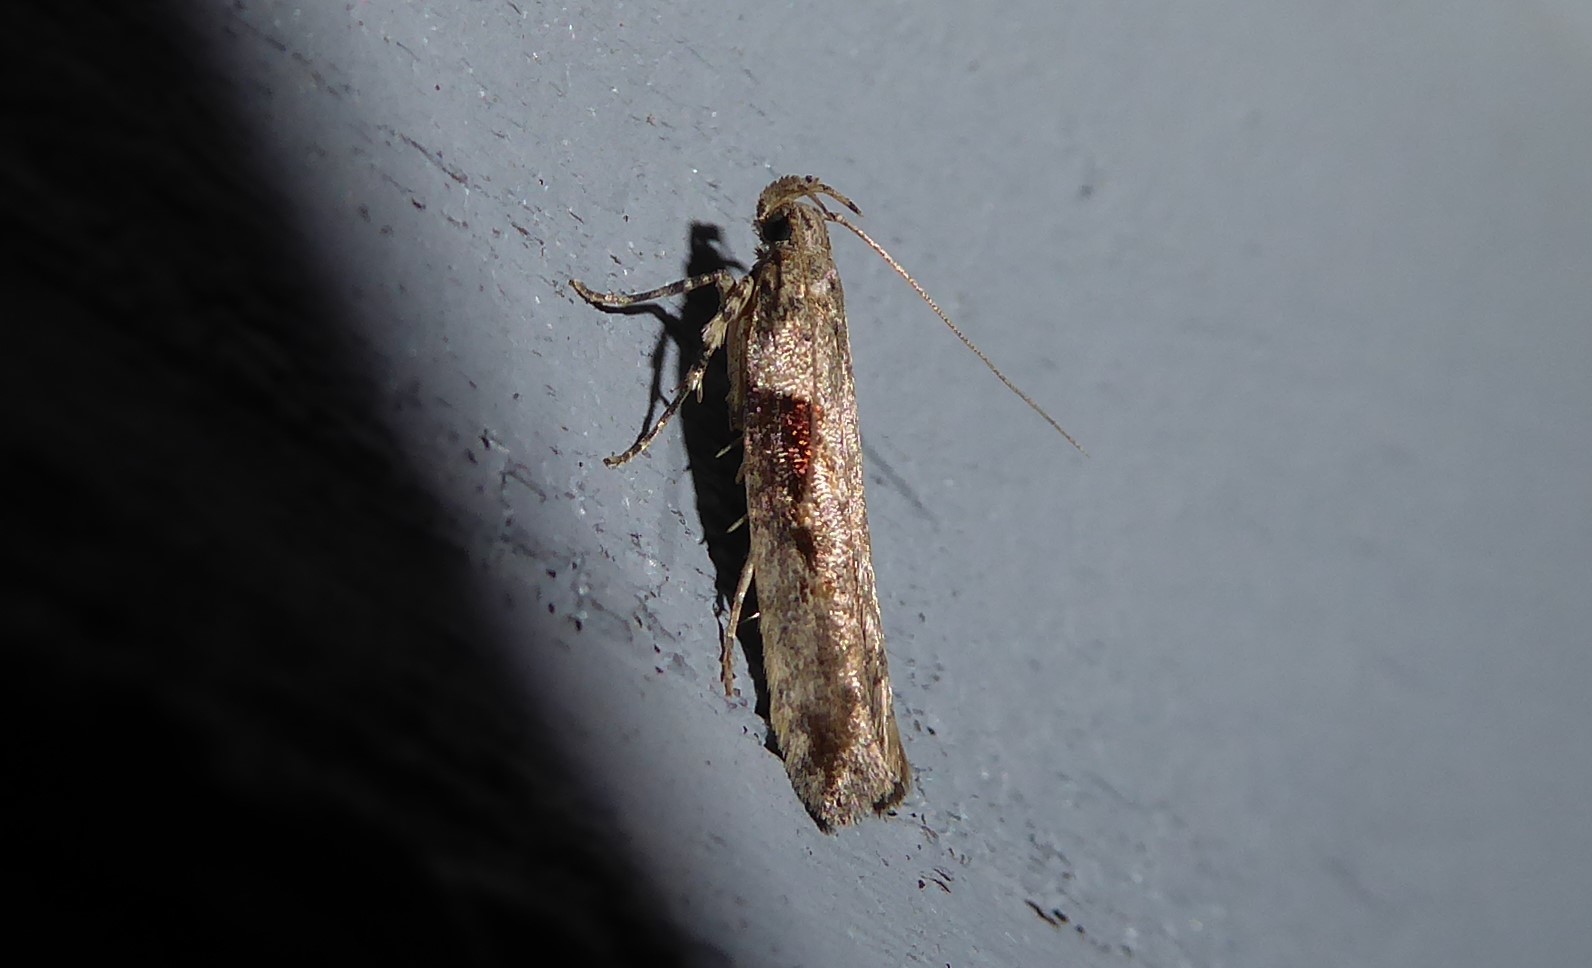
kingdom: Animalia
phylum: Arthropoda
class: Insecta
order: Lepidoptera
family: Gelechiidae
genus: Symmetrischema
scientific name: Symmetrischema tangolias
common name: Moth
